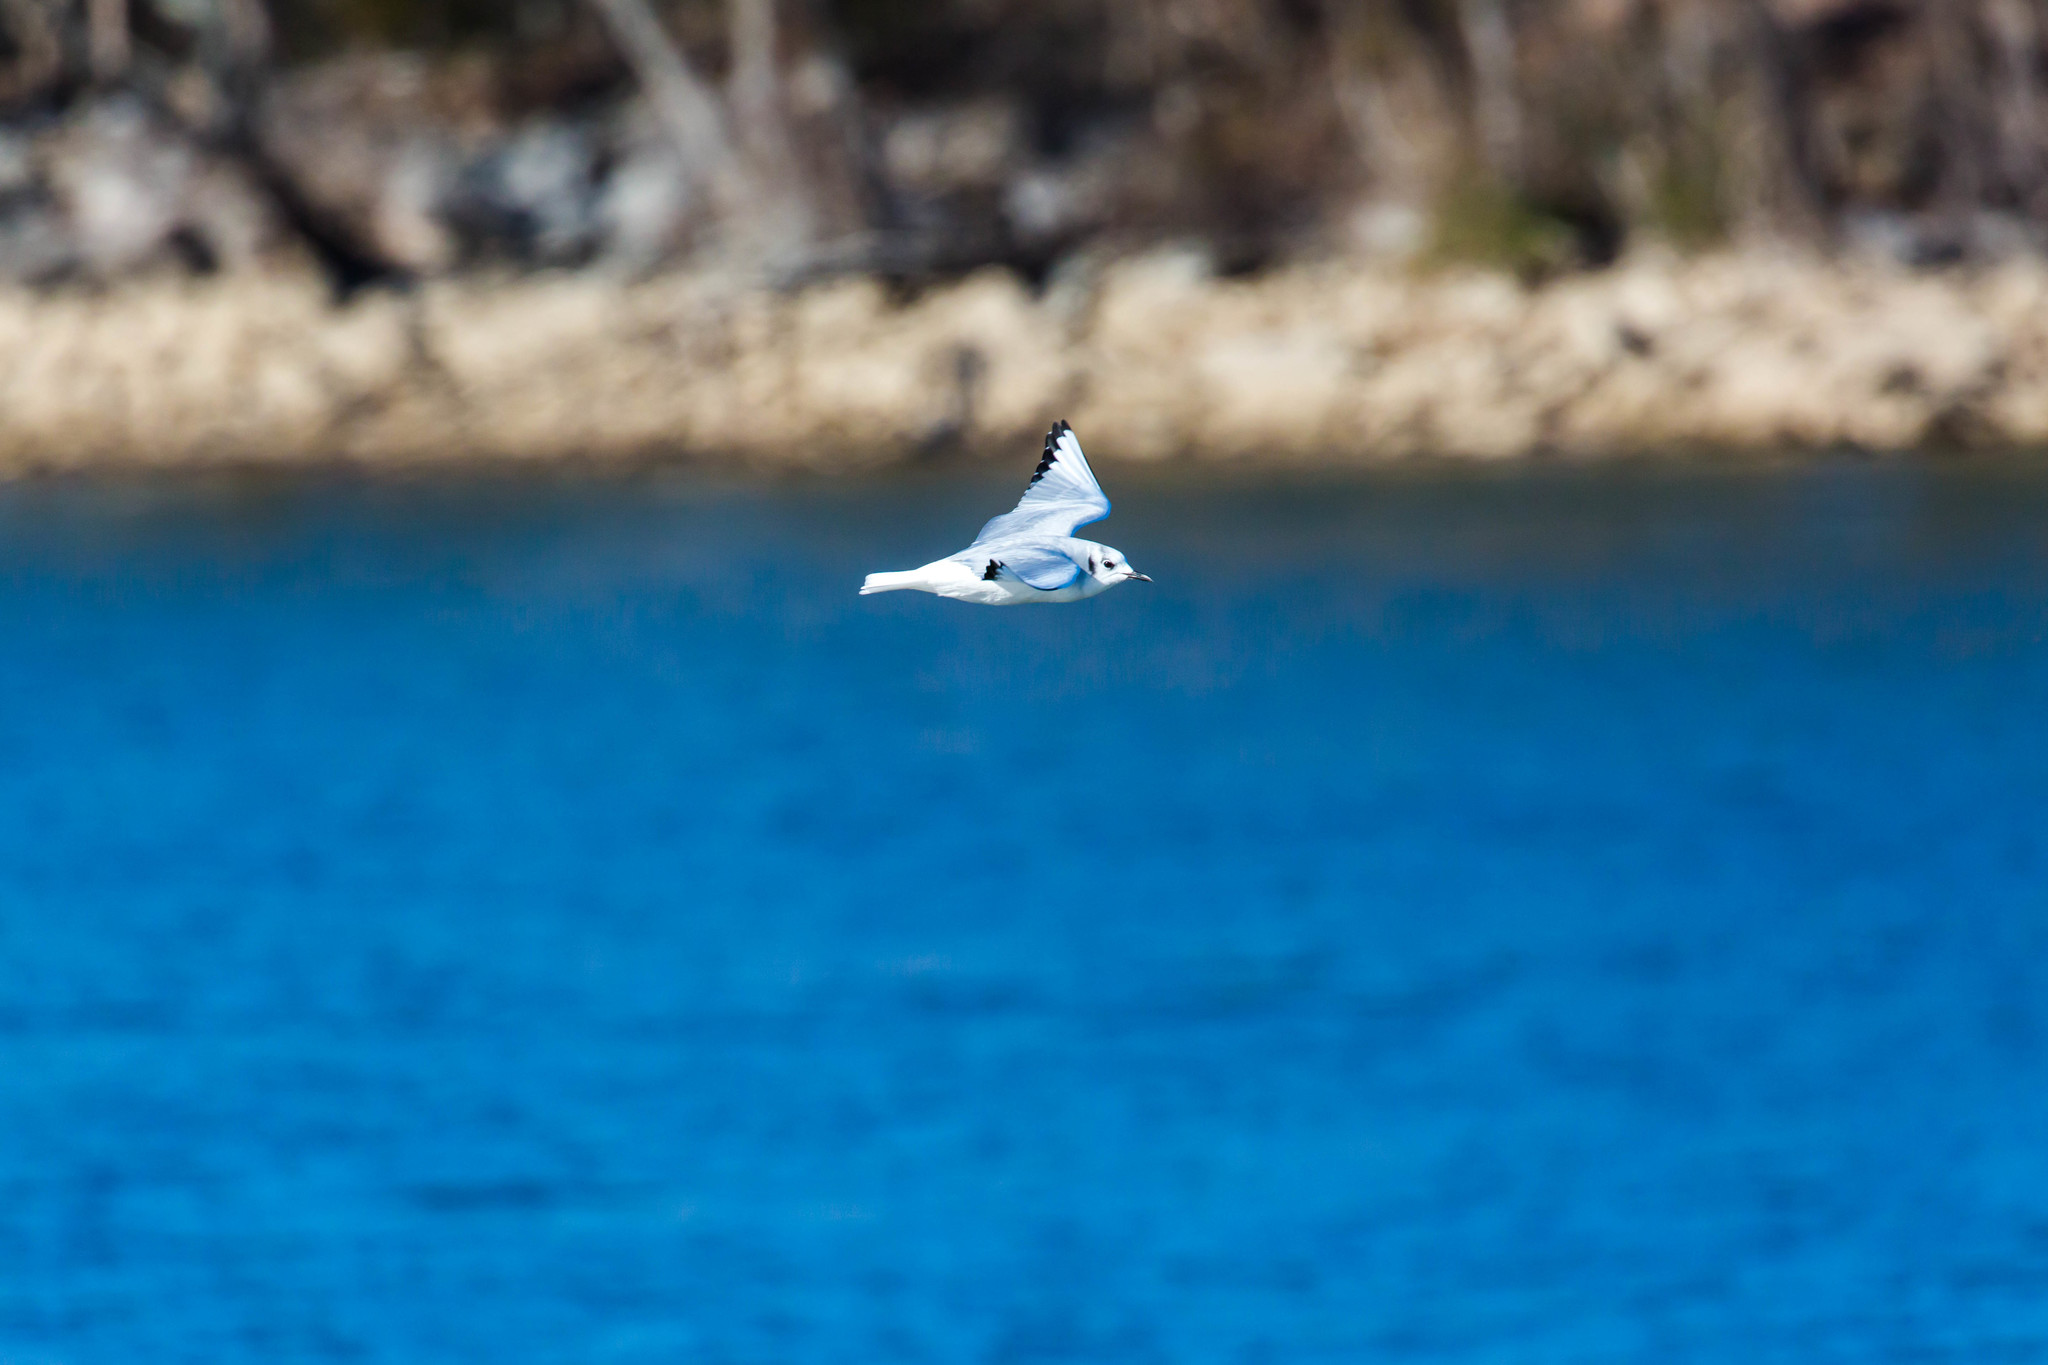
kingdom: Animalia
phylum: Chordata
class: Aves
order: Charadriiformes
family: Laridae
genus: Chroicocephalus
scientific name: Chroicocephalus philadelphia
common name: Bonaparte's gull
